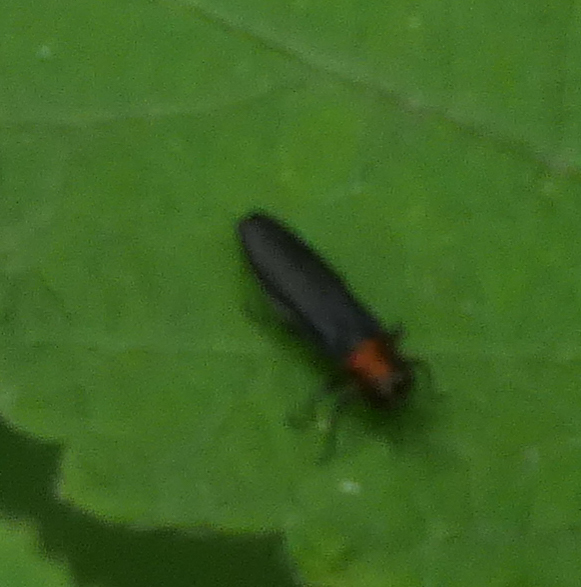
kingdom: Animalia
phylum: Arthropoda
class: Insecta
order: Coleoptera
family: Buprestidae
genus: Agrilus
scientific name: Agrilus ruficollis
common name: Red-necked cane borer beetle
